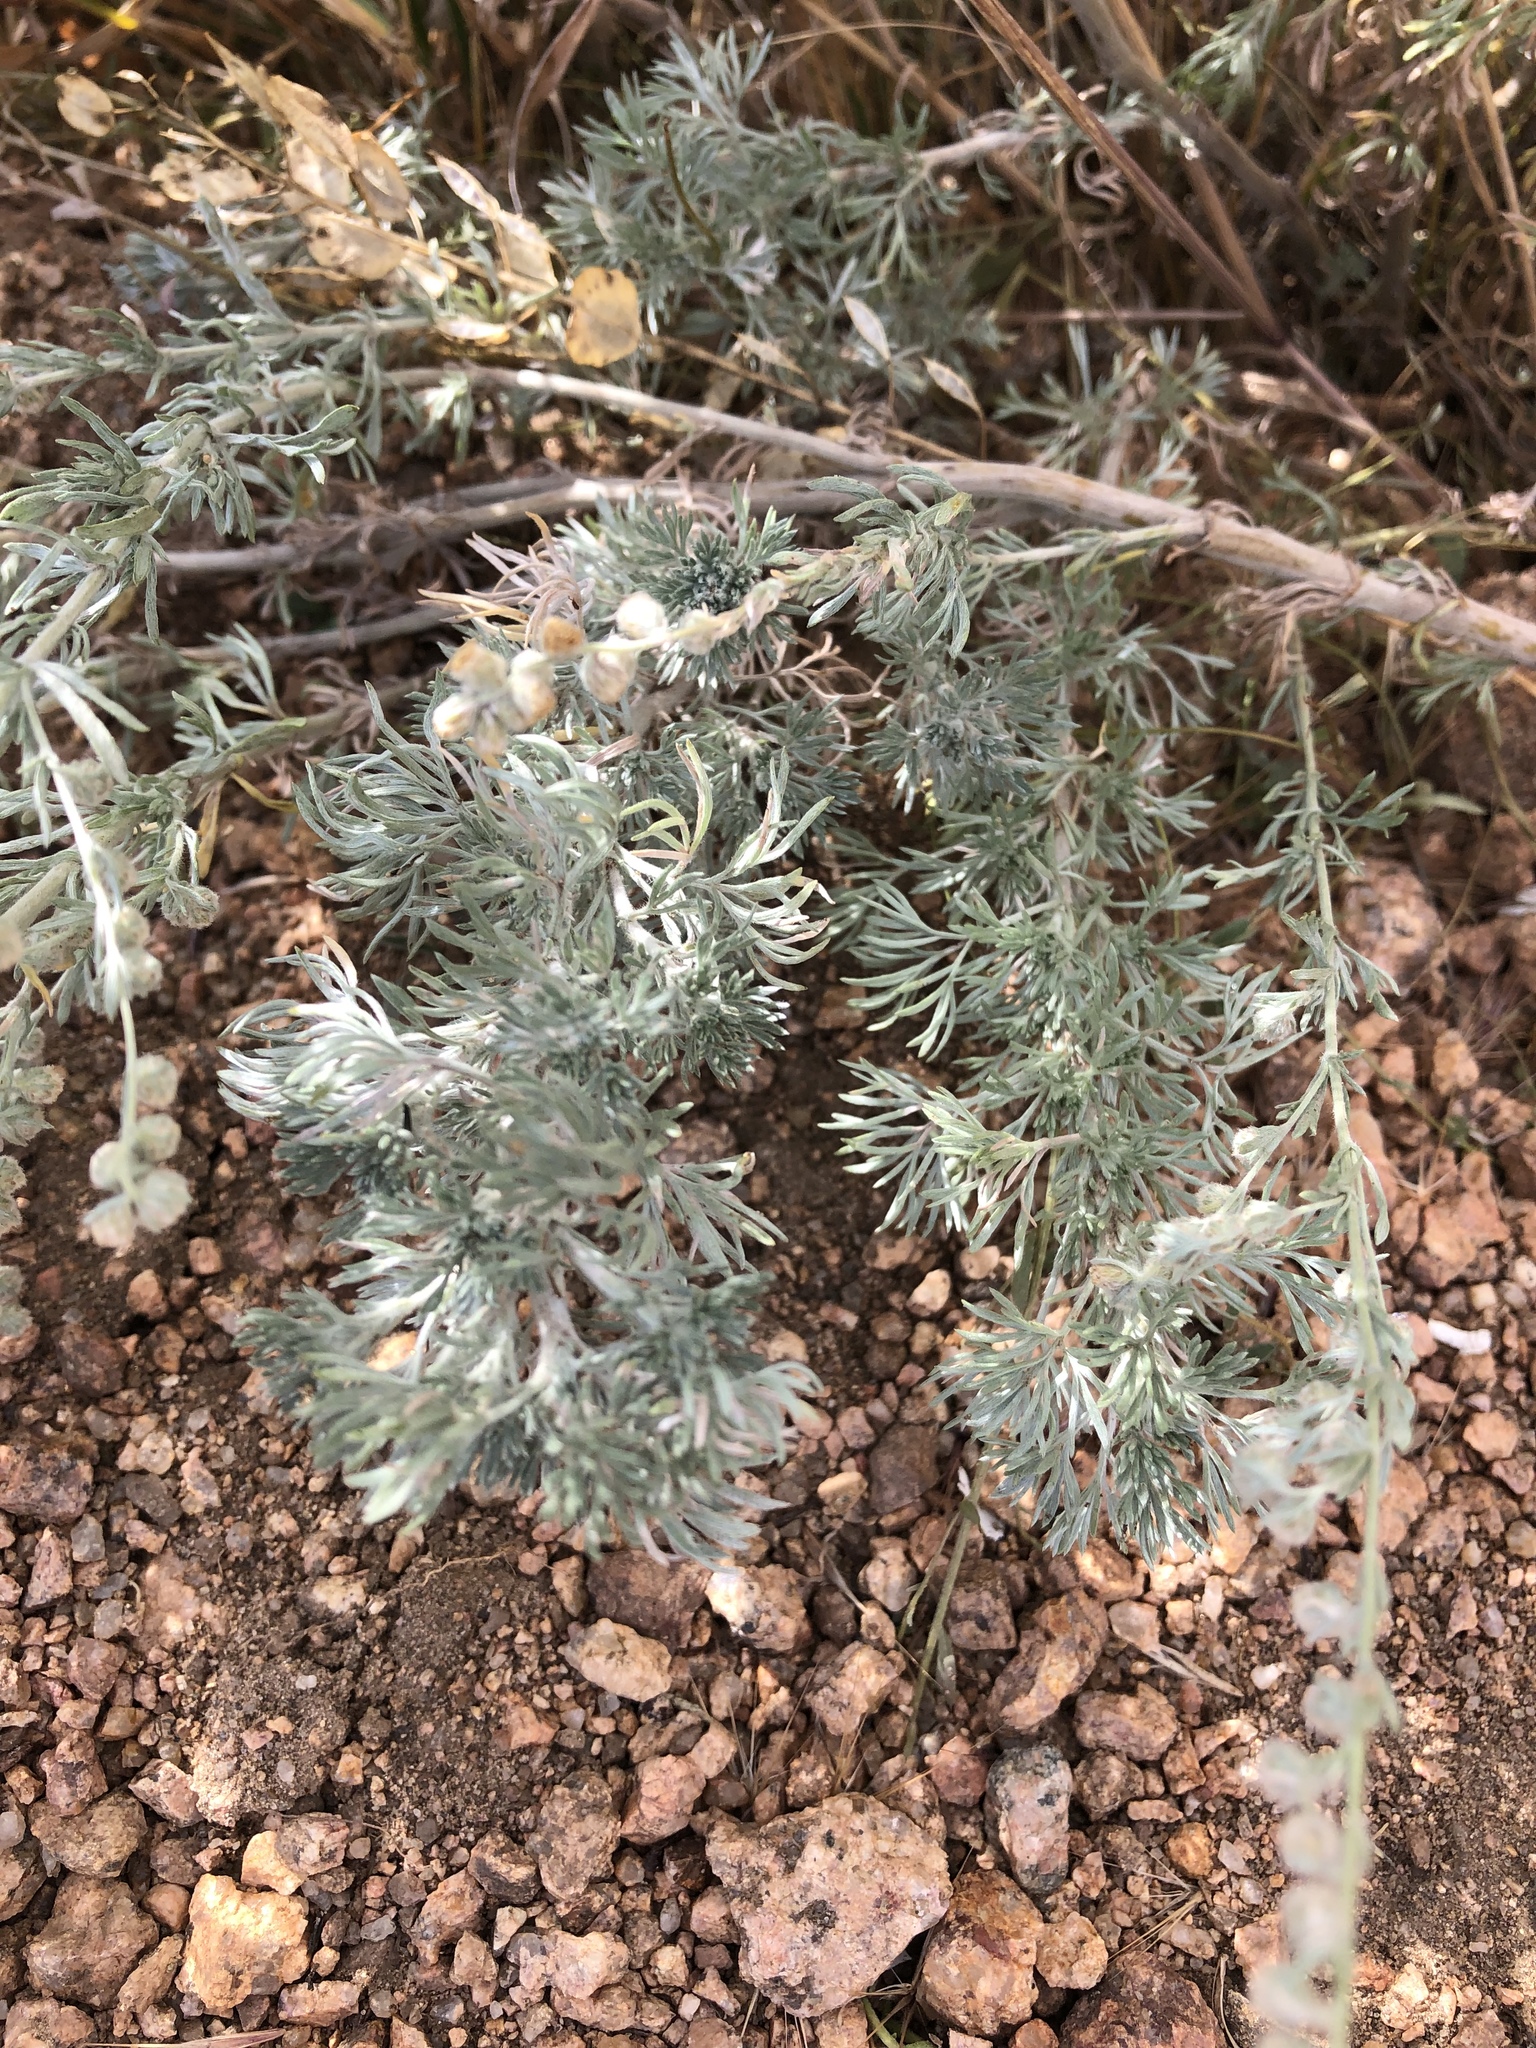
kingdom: Plantae
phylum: Tracheophyta
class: Magnoliopsida
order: Asterales
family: Asteraceae
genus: Artemisia
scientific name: Artemisia frigida
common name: Prairie sagewort
